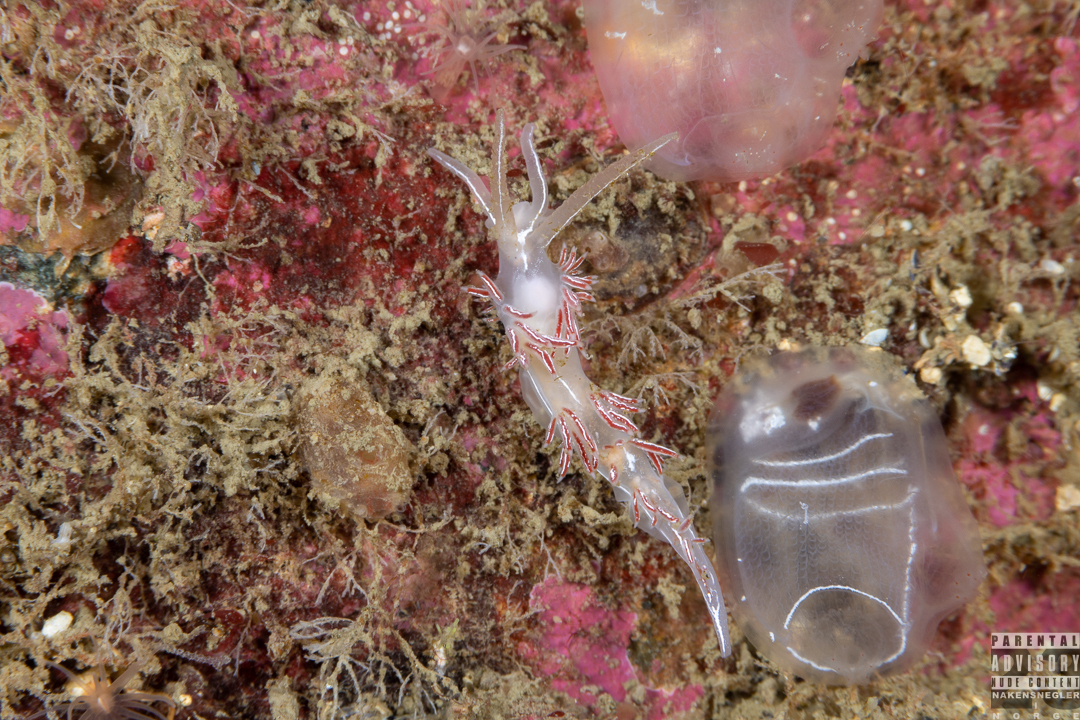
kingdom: Animalia
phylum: Mollusca
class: Gastropoda
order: Nudibranchia
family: Coryphellidae
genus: Coryphella
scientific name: Coryphella chriskaugei
